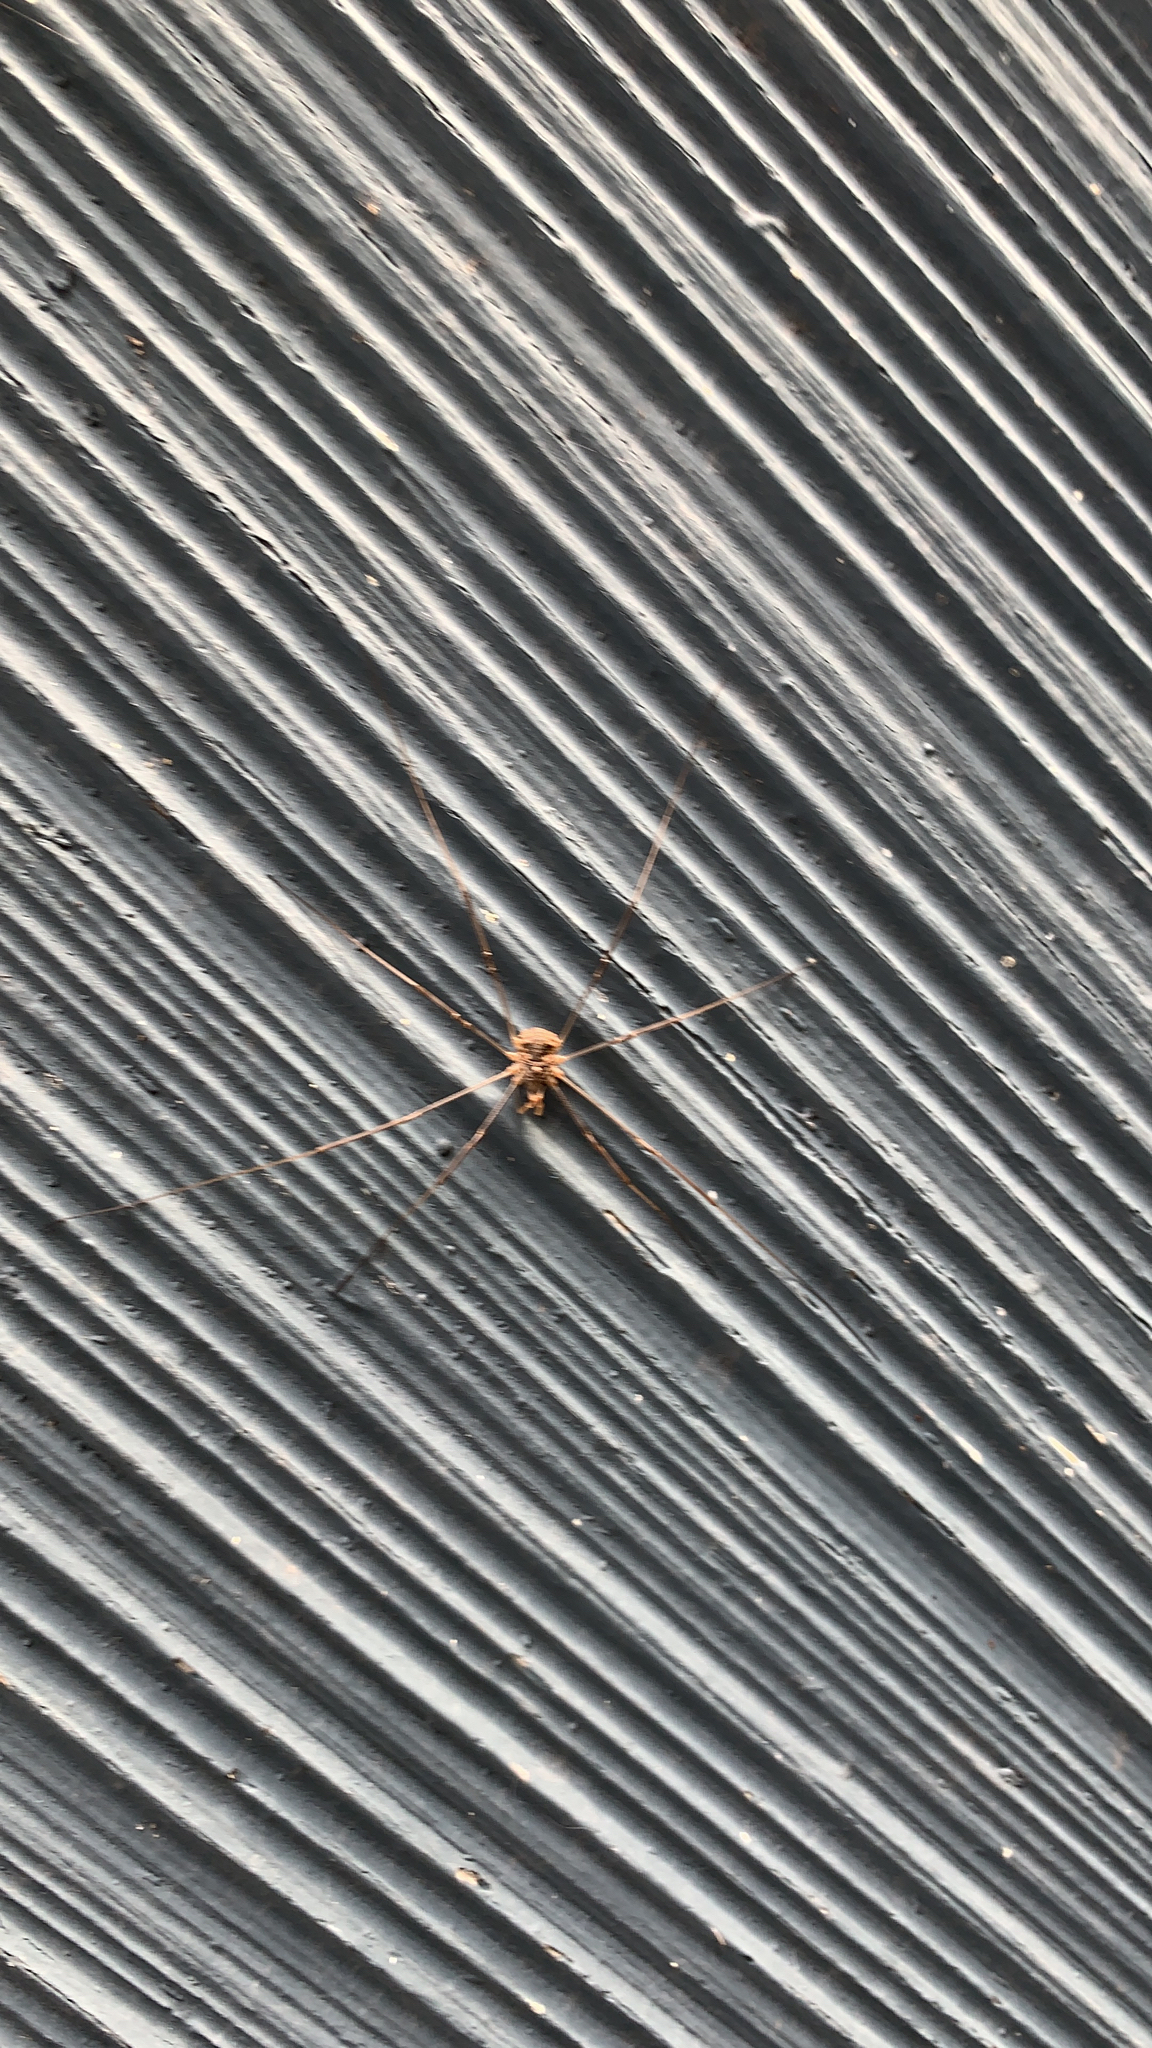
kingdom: Animalia
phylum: Arthropoda
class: Arachnida
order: Opiliones
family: Phalangiidae
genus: Phalangium
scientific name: Phalangium opilio
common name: Daddy longleg
